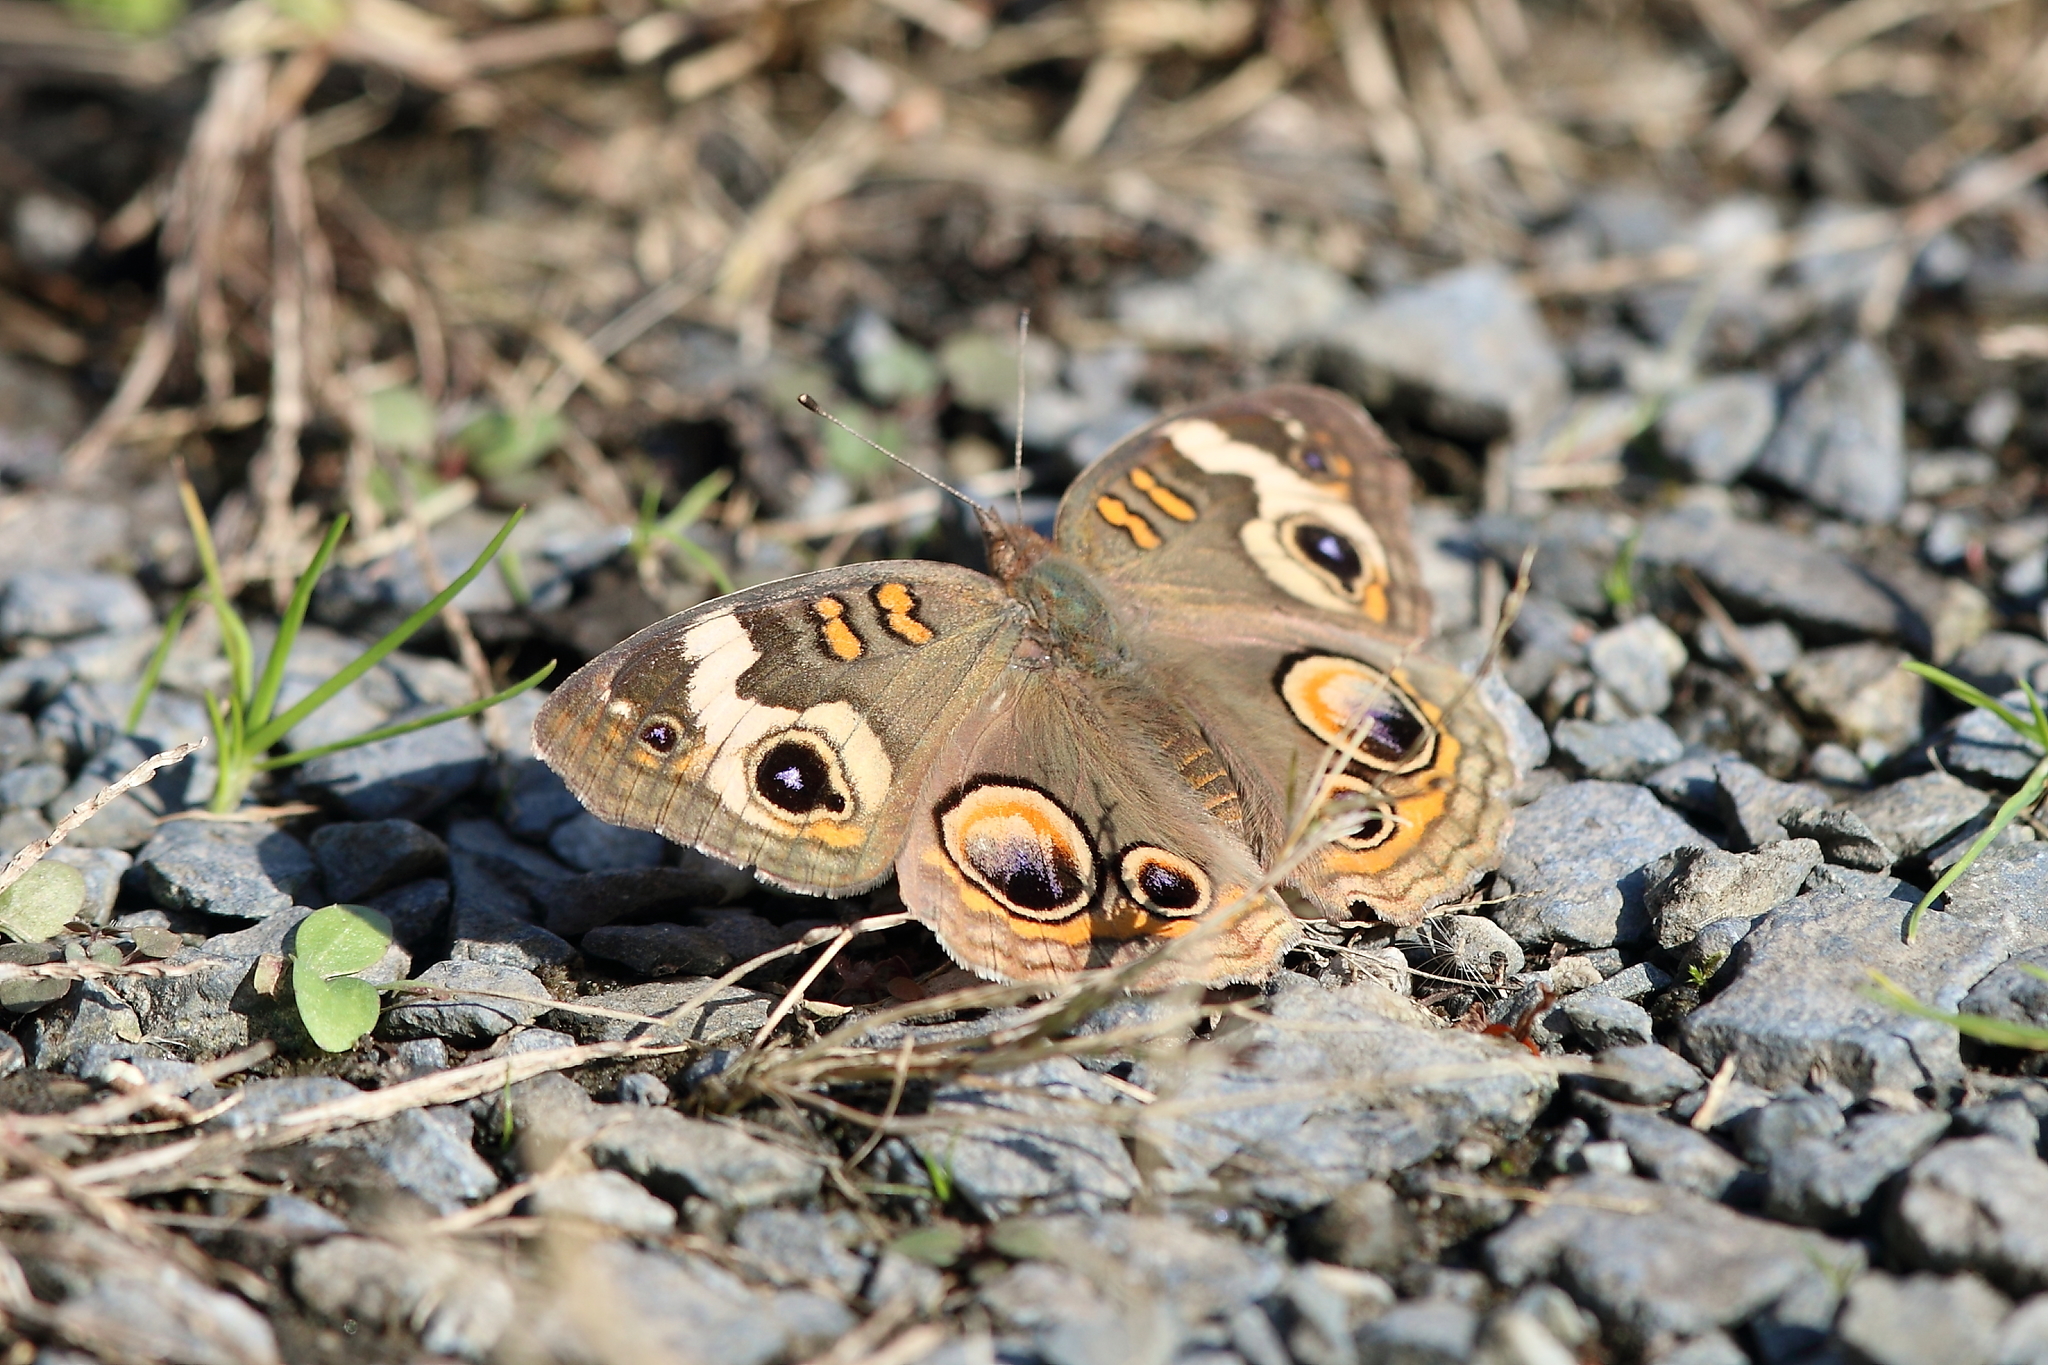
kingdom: Animalia
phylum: Arthropoda
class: Insecta
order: Lepidoptera
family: Nymphalidae
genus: Junonia
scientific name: Junonia coenia
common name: Common buckeye
